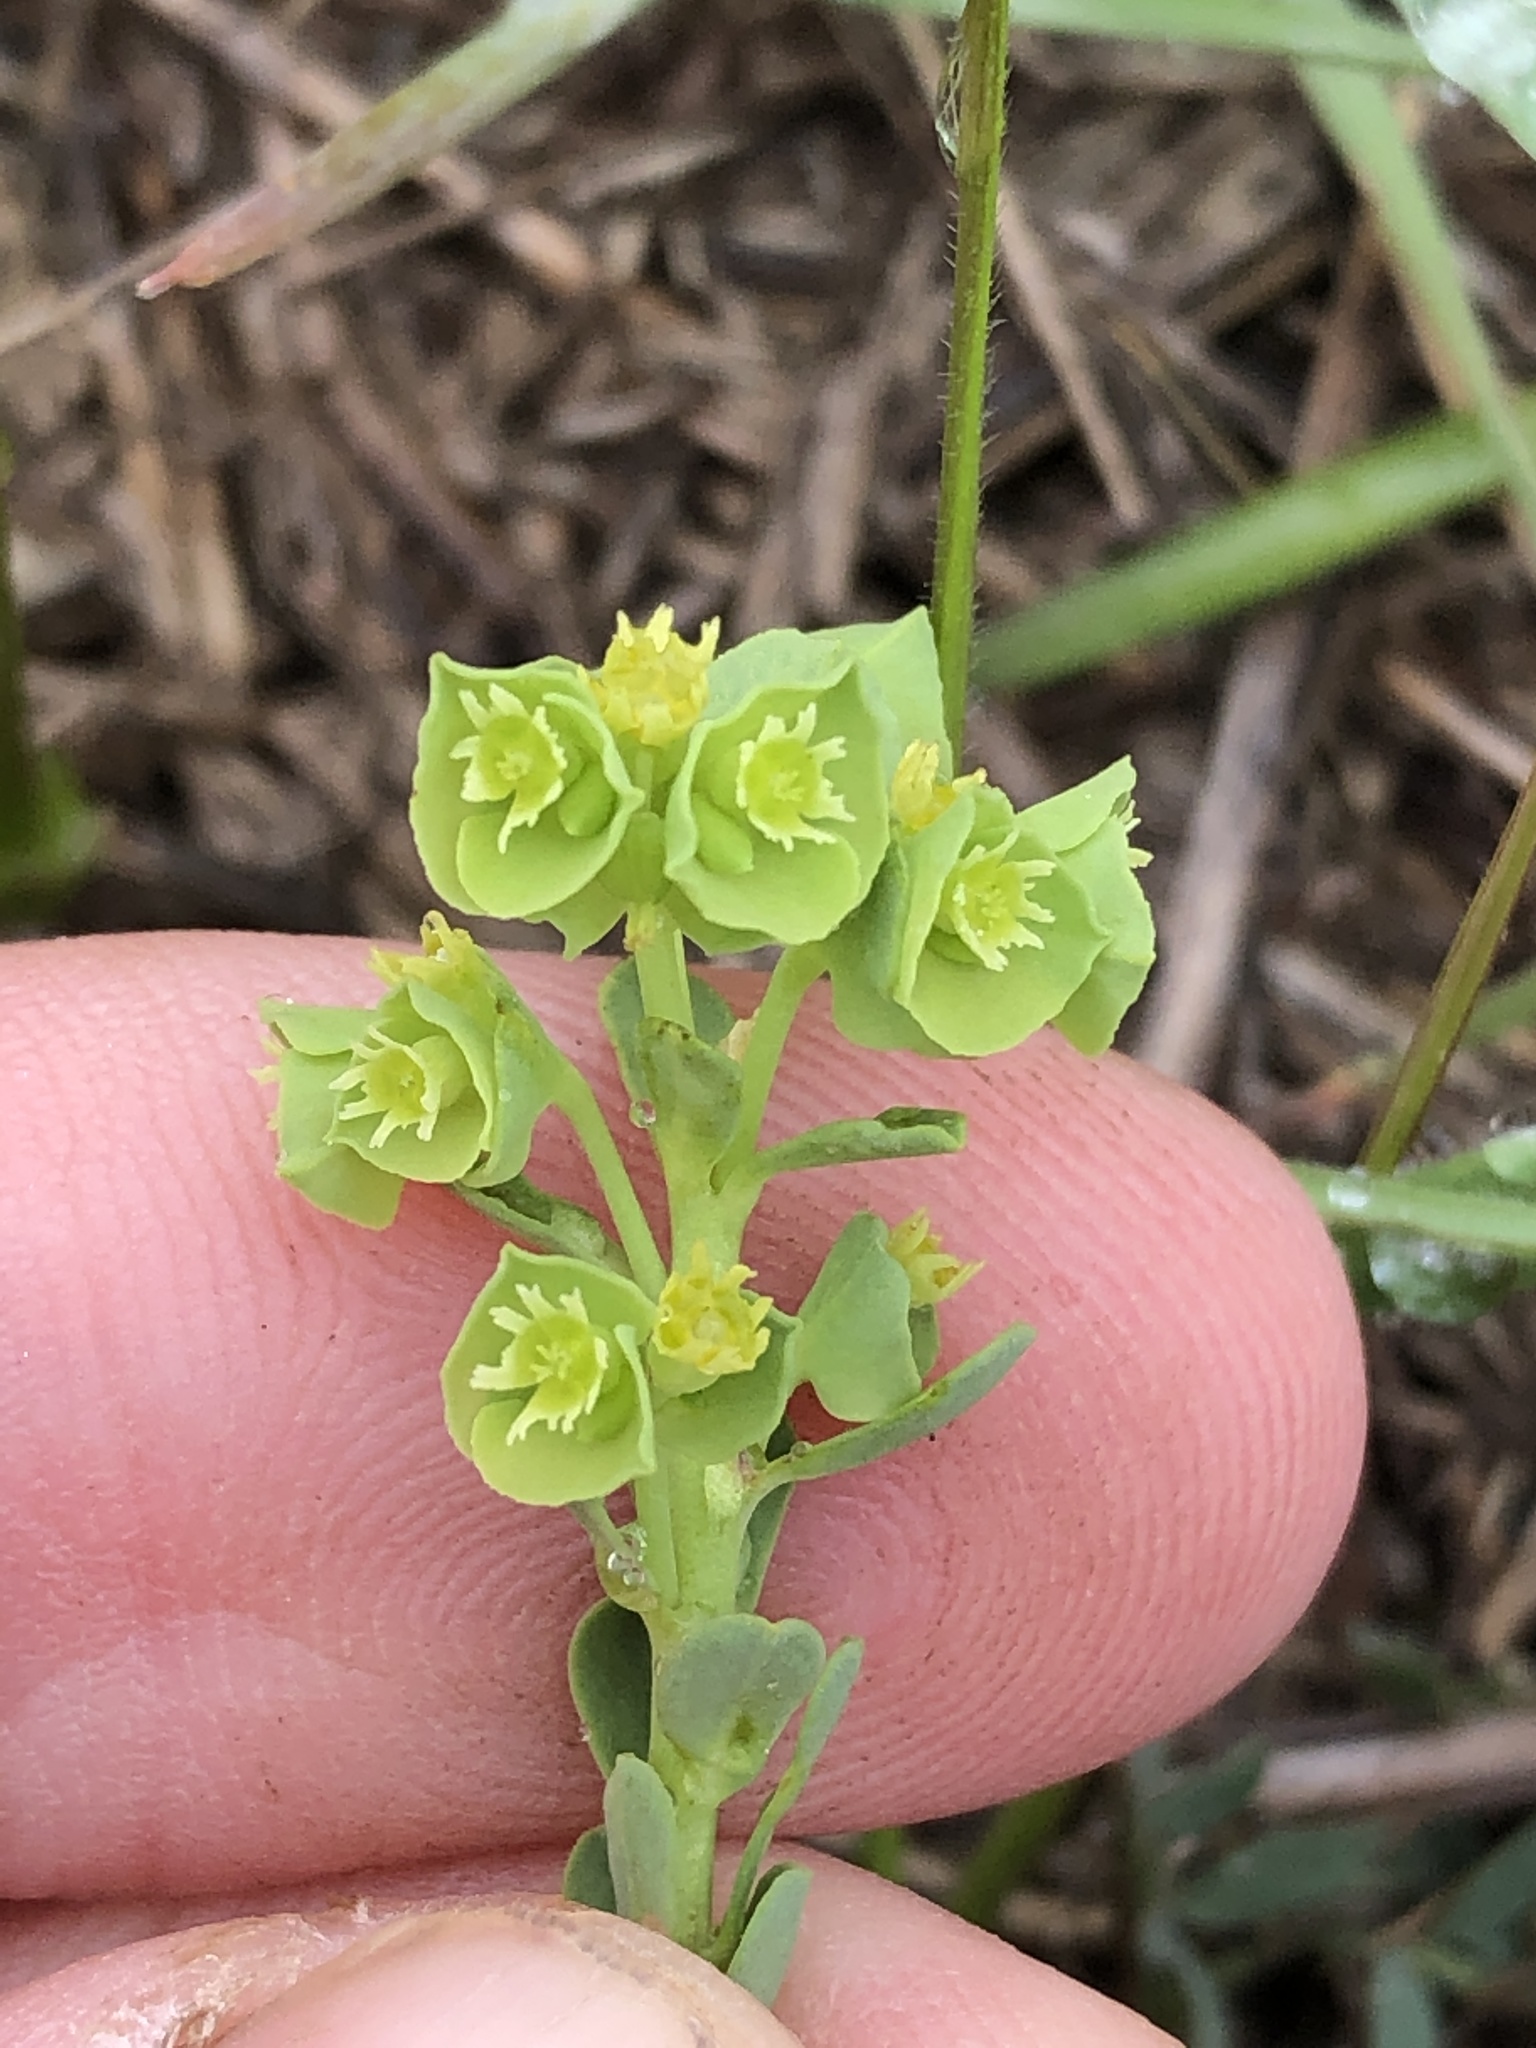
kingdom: Plantae
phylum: Tracheophyta
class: Magnoliopsida
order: Malpighiales
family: Euphorbiaceae
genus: Euphorbia
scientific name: Euphorbia longicruris
